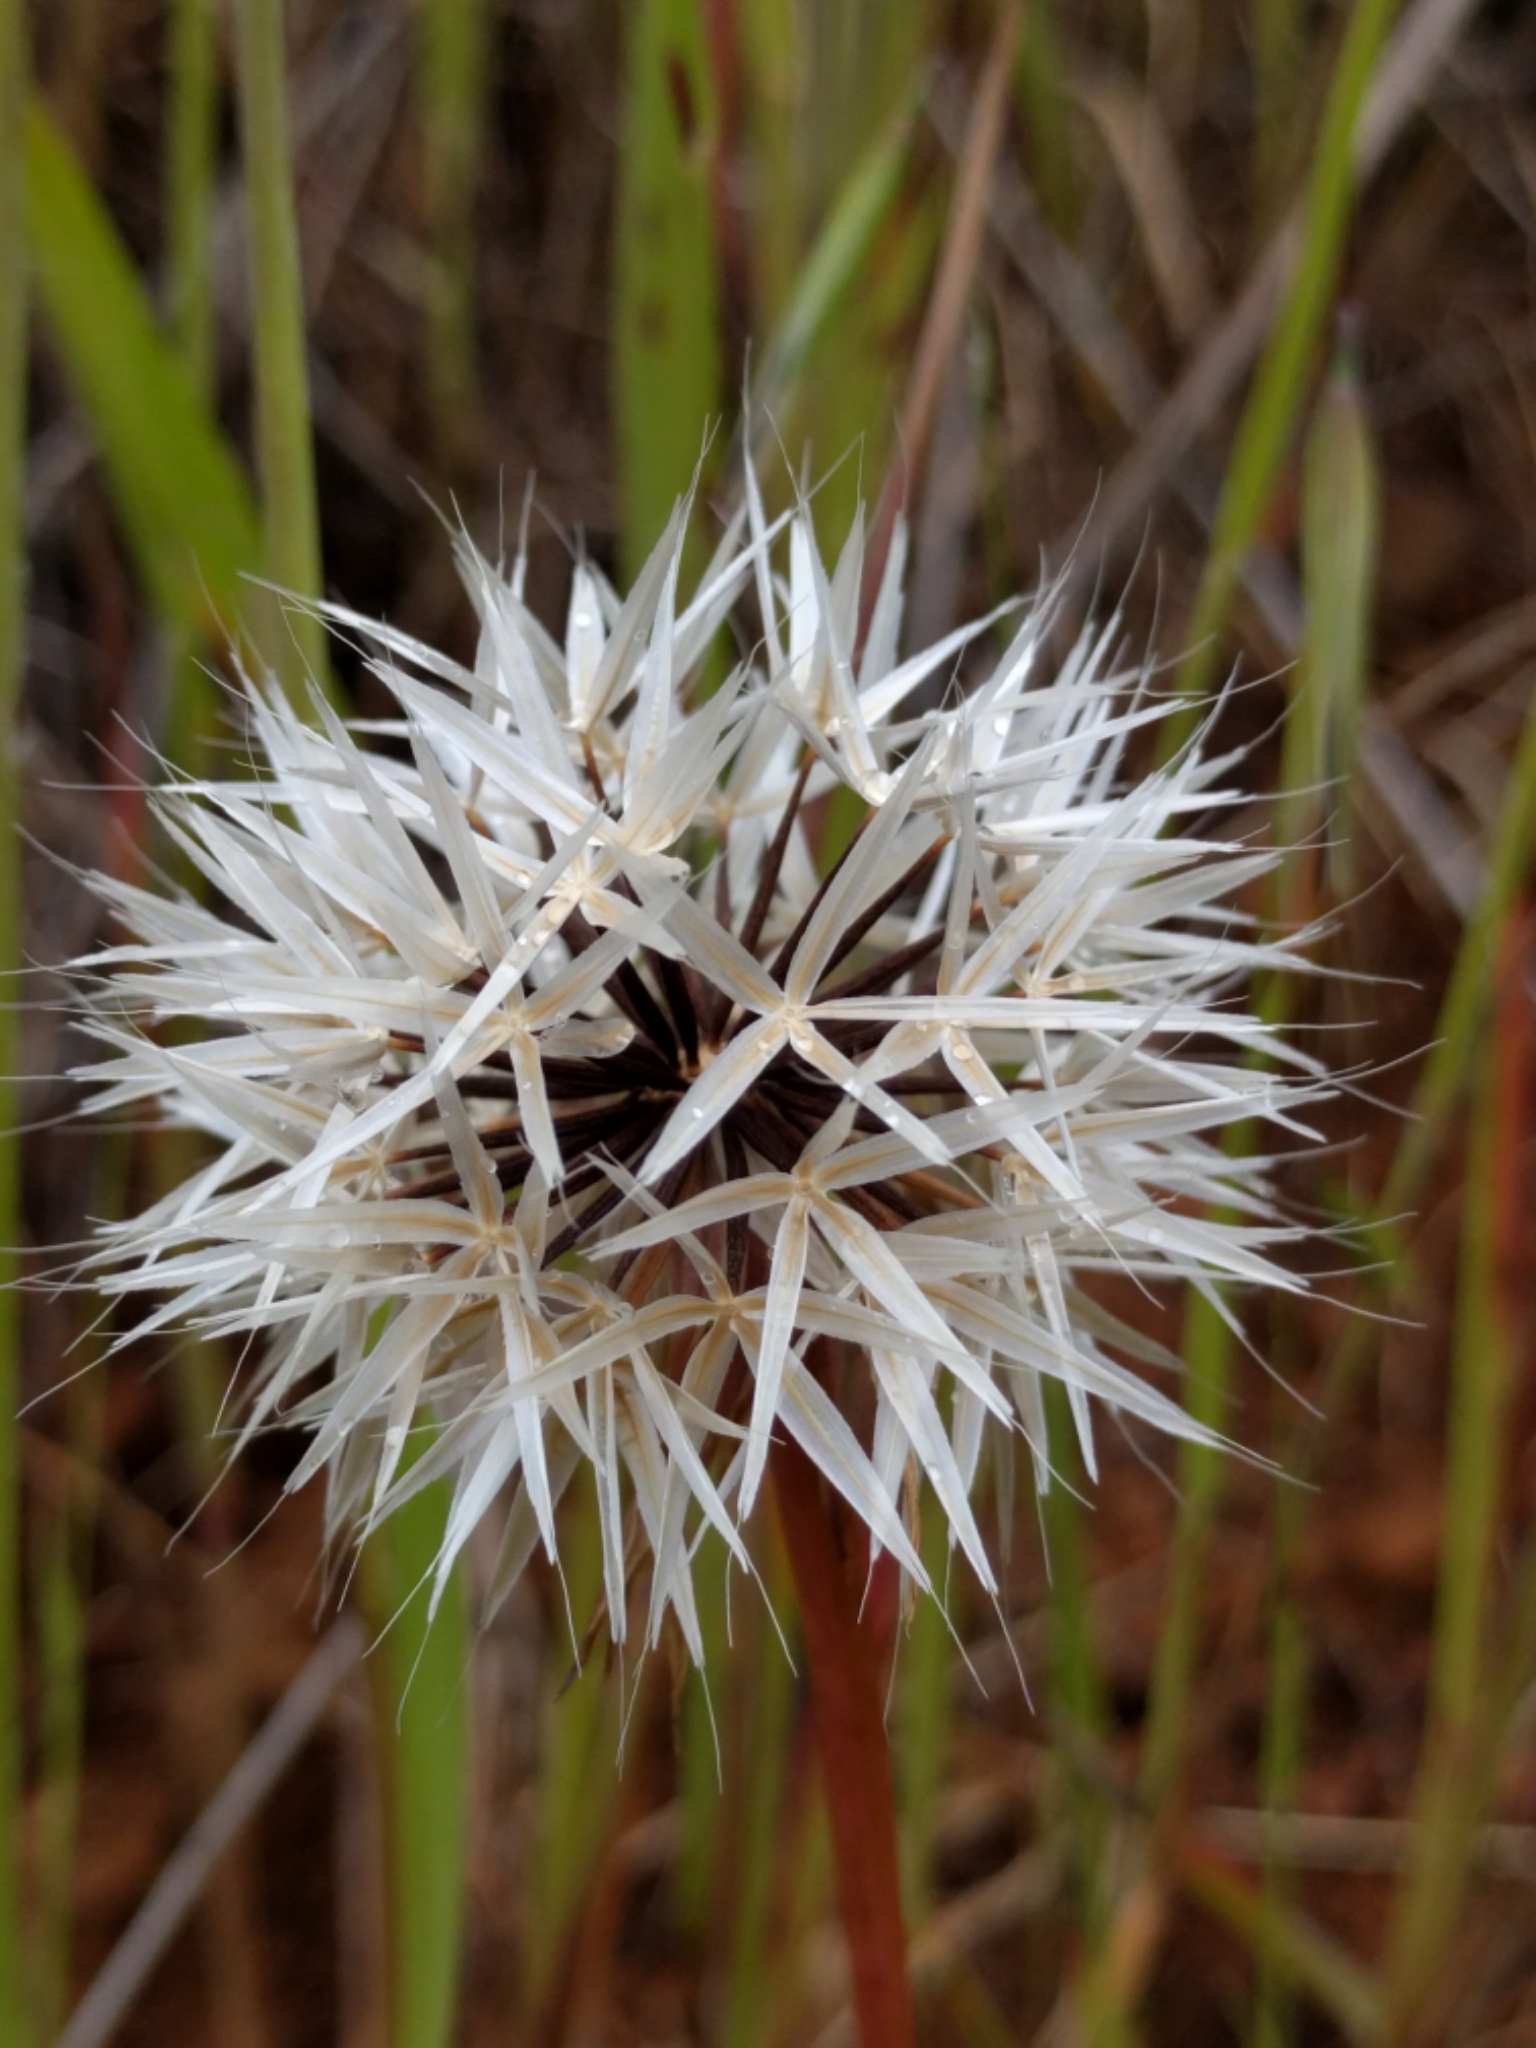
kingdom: Plantae
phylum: Tracheophyta
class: Magnoliopsida
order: Asterales
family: Asteraceae
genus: Microseris
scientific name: Microseris lindleyi
